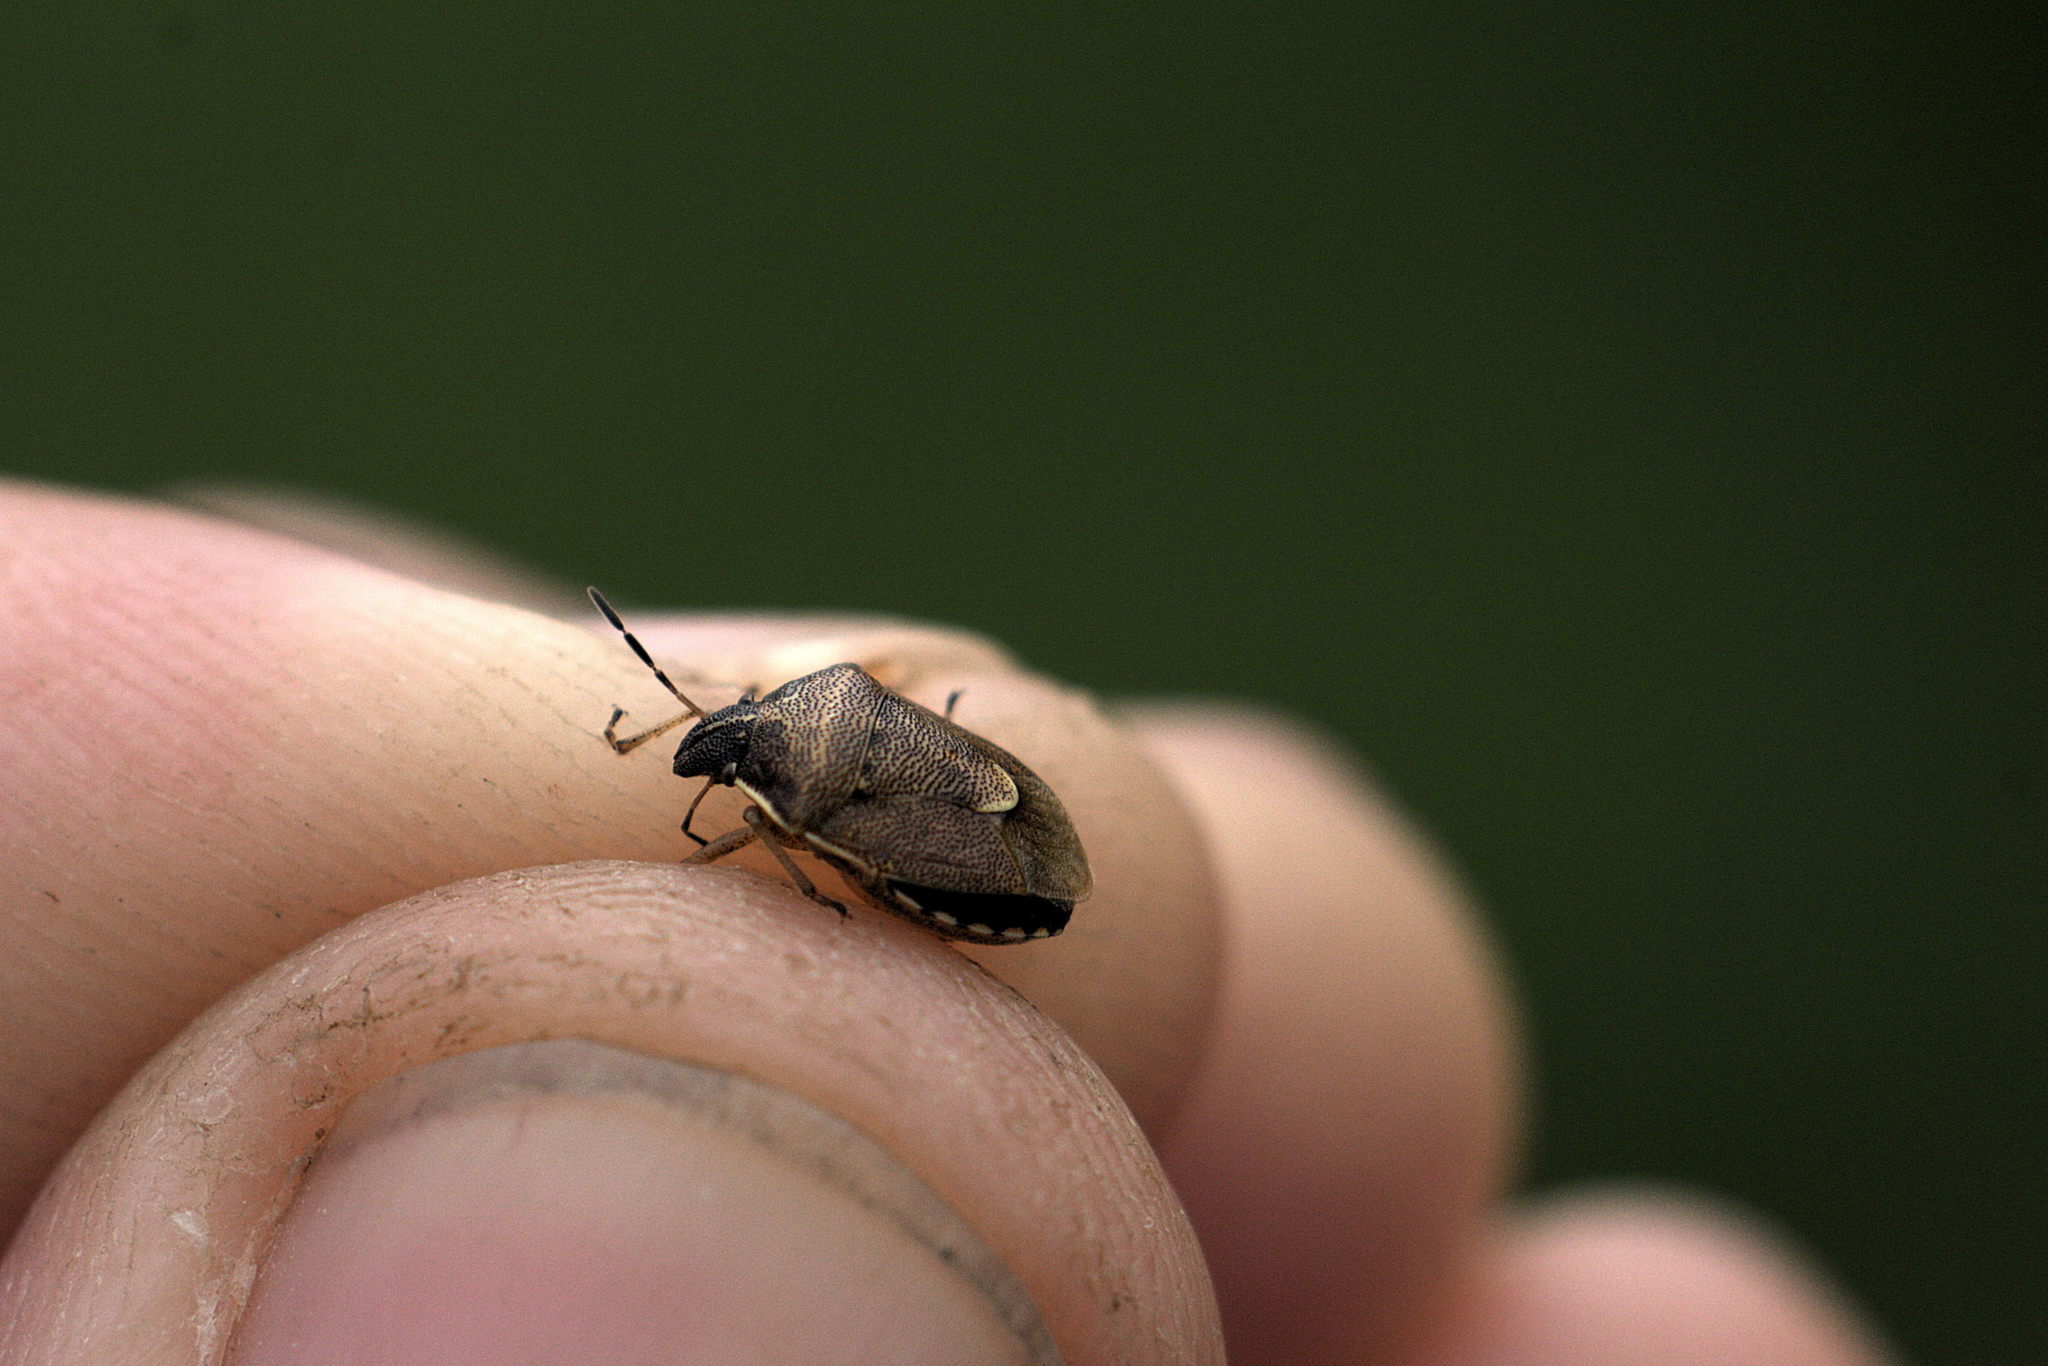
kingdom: Animalia
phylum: Arthropoda
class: Insecta
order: Hemiptera
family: Pentatomidae
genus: Rubiconia
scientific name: Rubiconia intermedia
